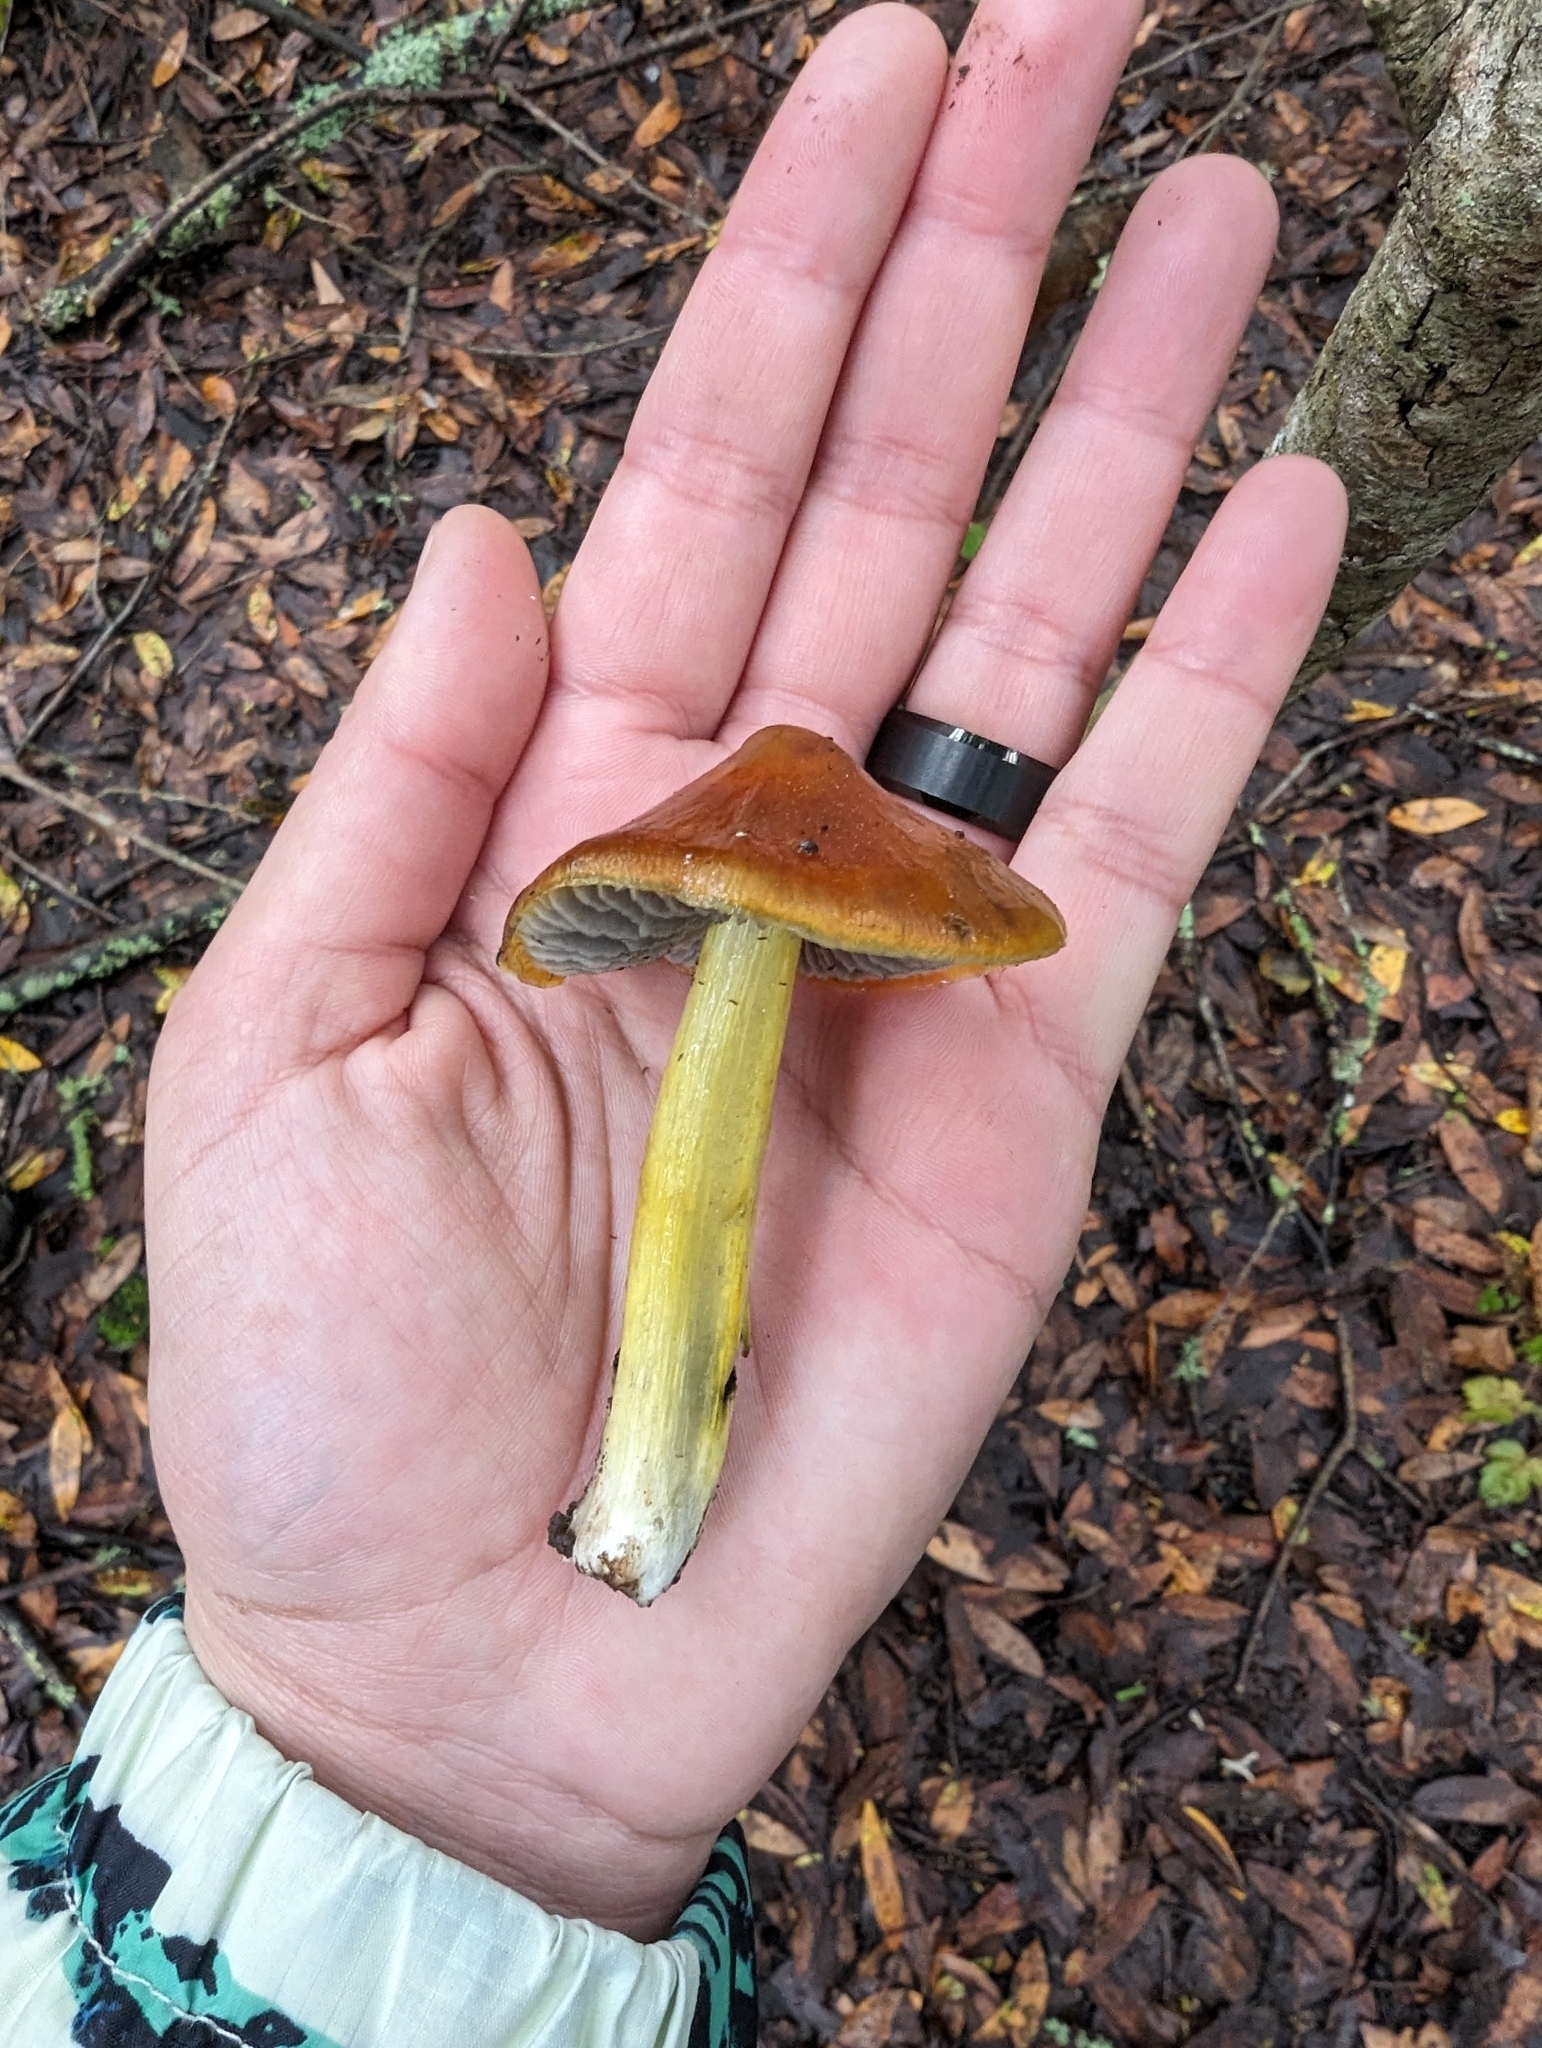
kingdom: Fungi
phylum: Basidiomycota
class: Agaricomycetes
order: Agaricales
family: Hygrophoraceae
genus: Hygrocybe
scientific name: Hygrocybe singeri
